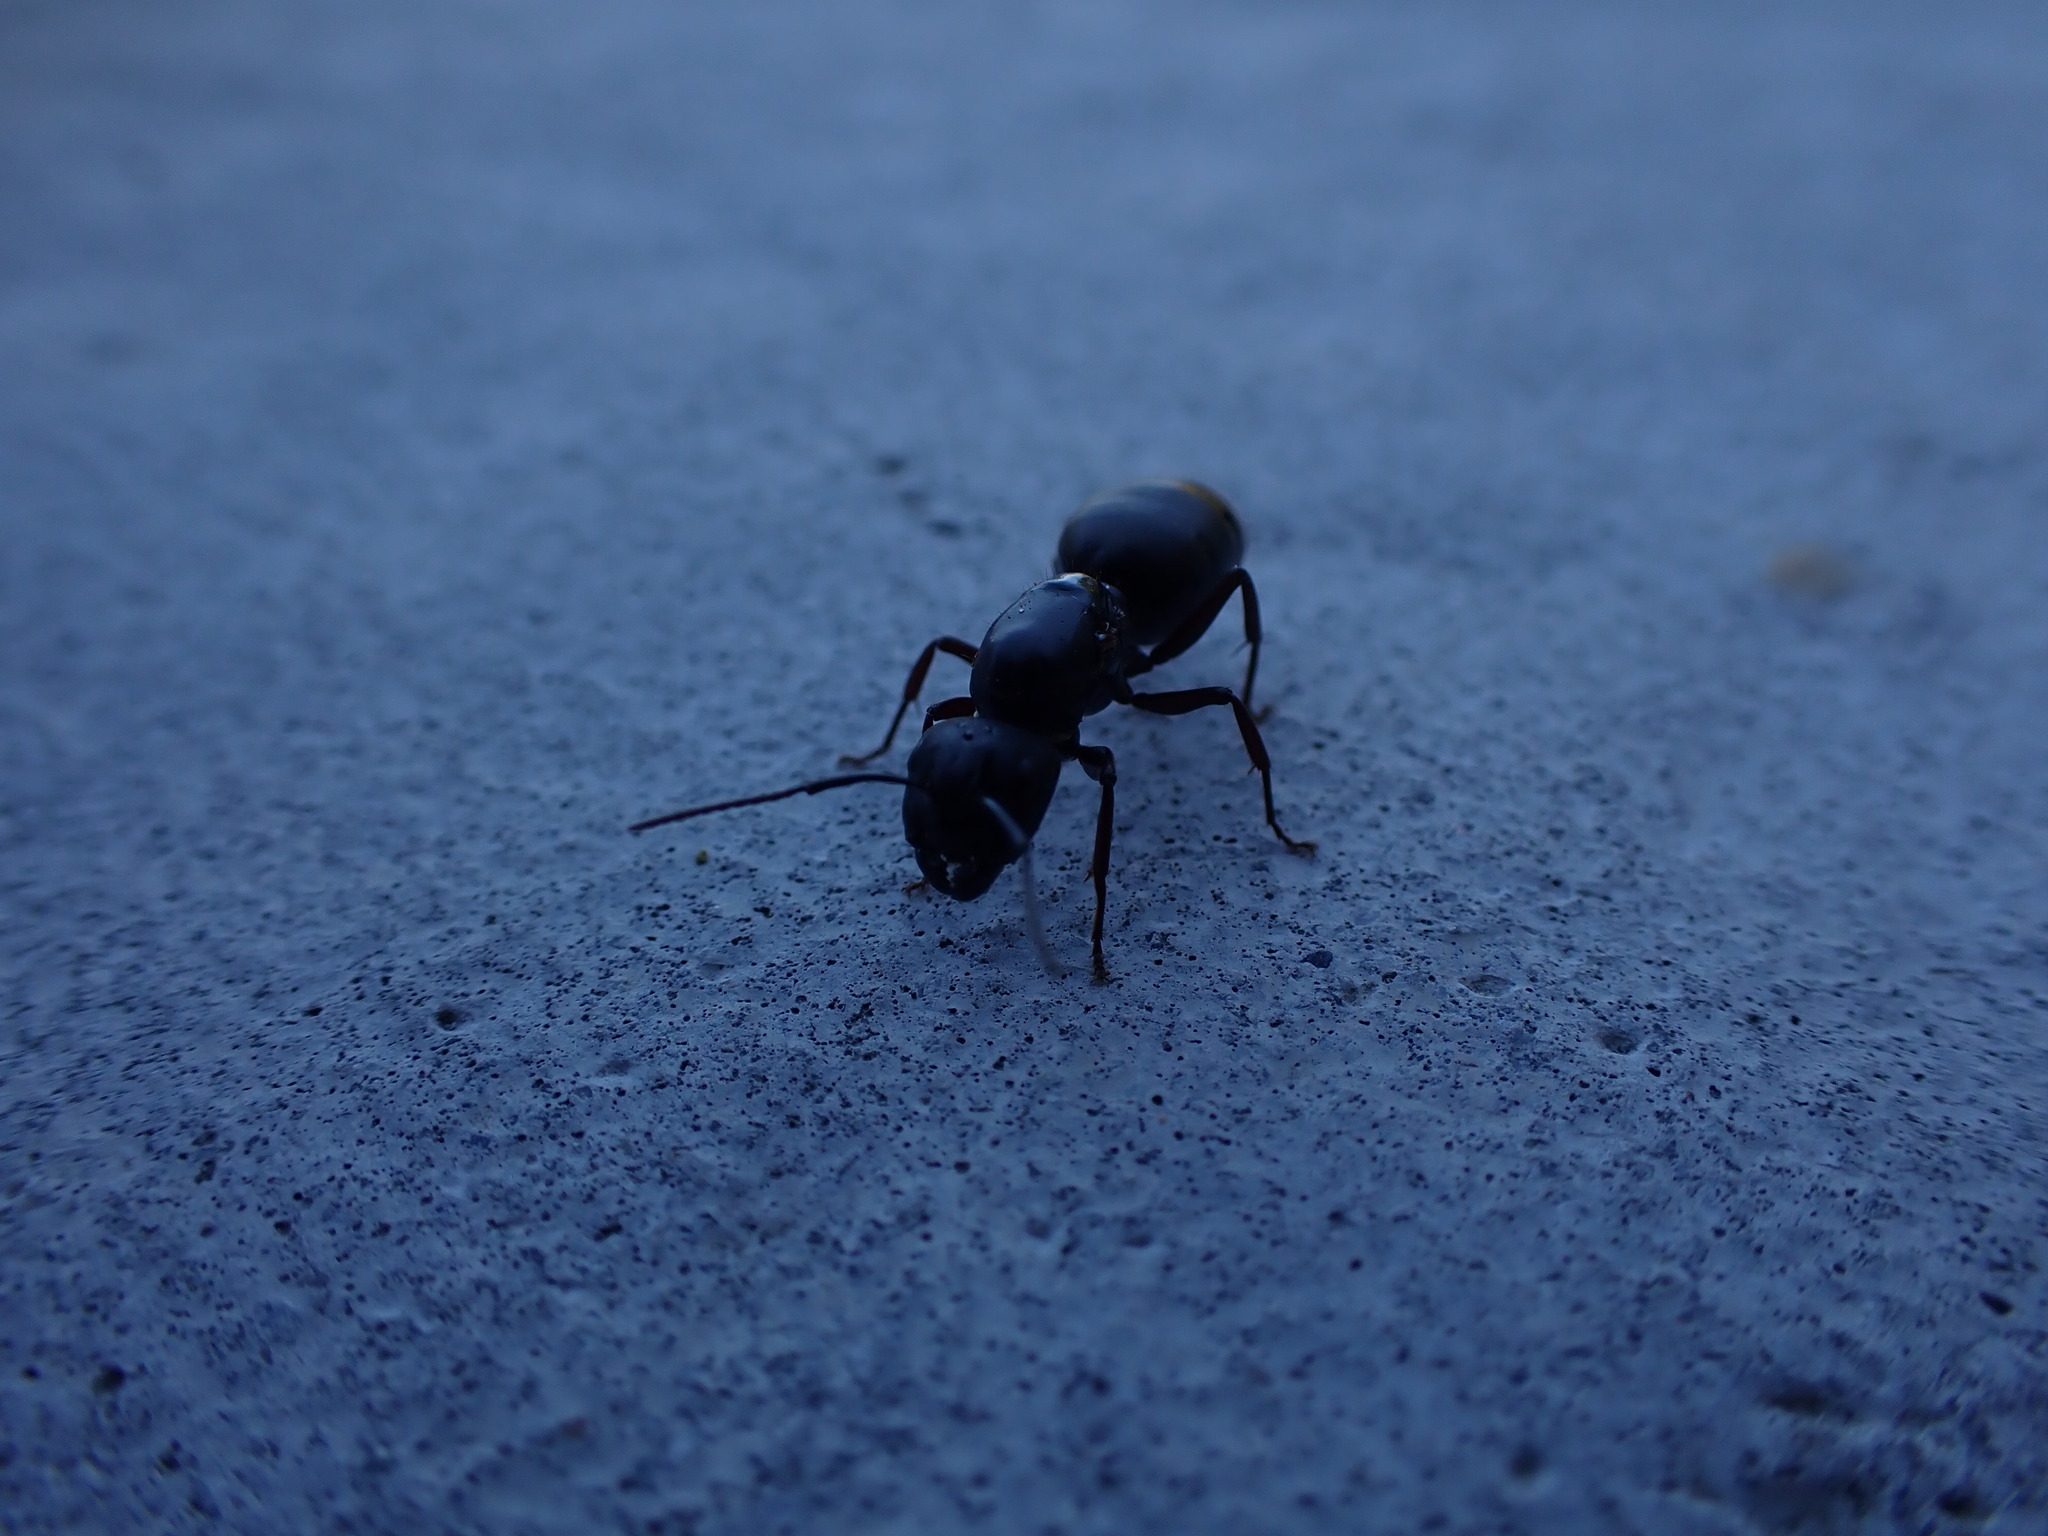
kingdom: Animalia
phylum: Arthropoda
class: Insecta
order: Hymenoptera
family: Formicidae
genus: Camponotus
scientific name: Camponotus modoc
